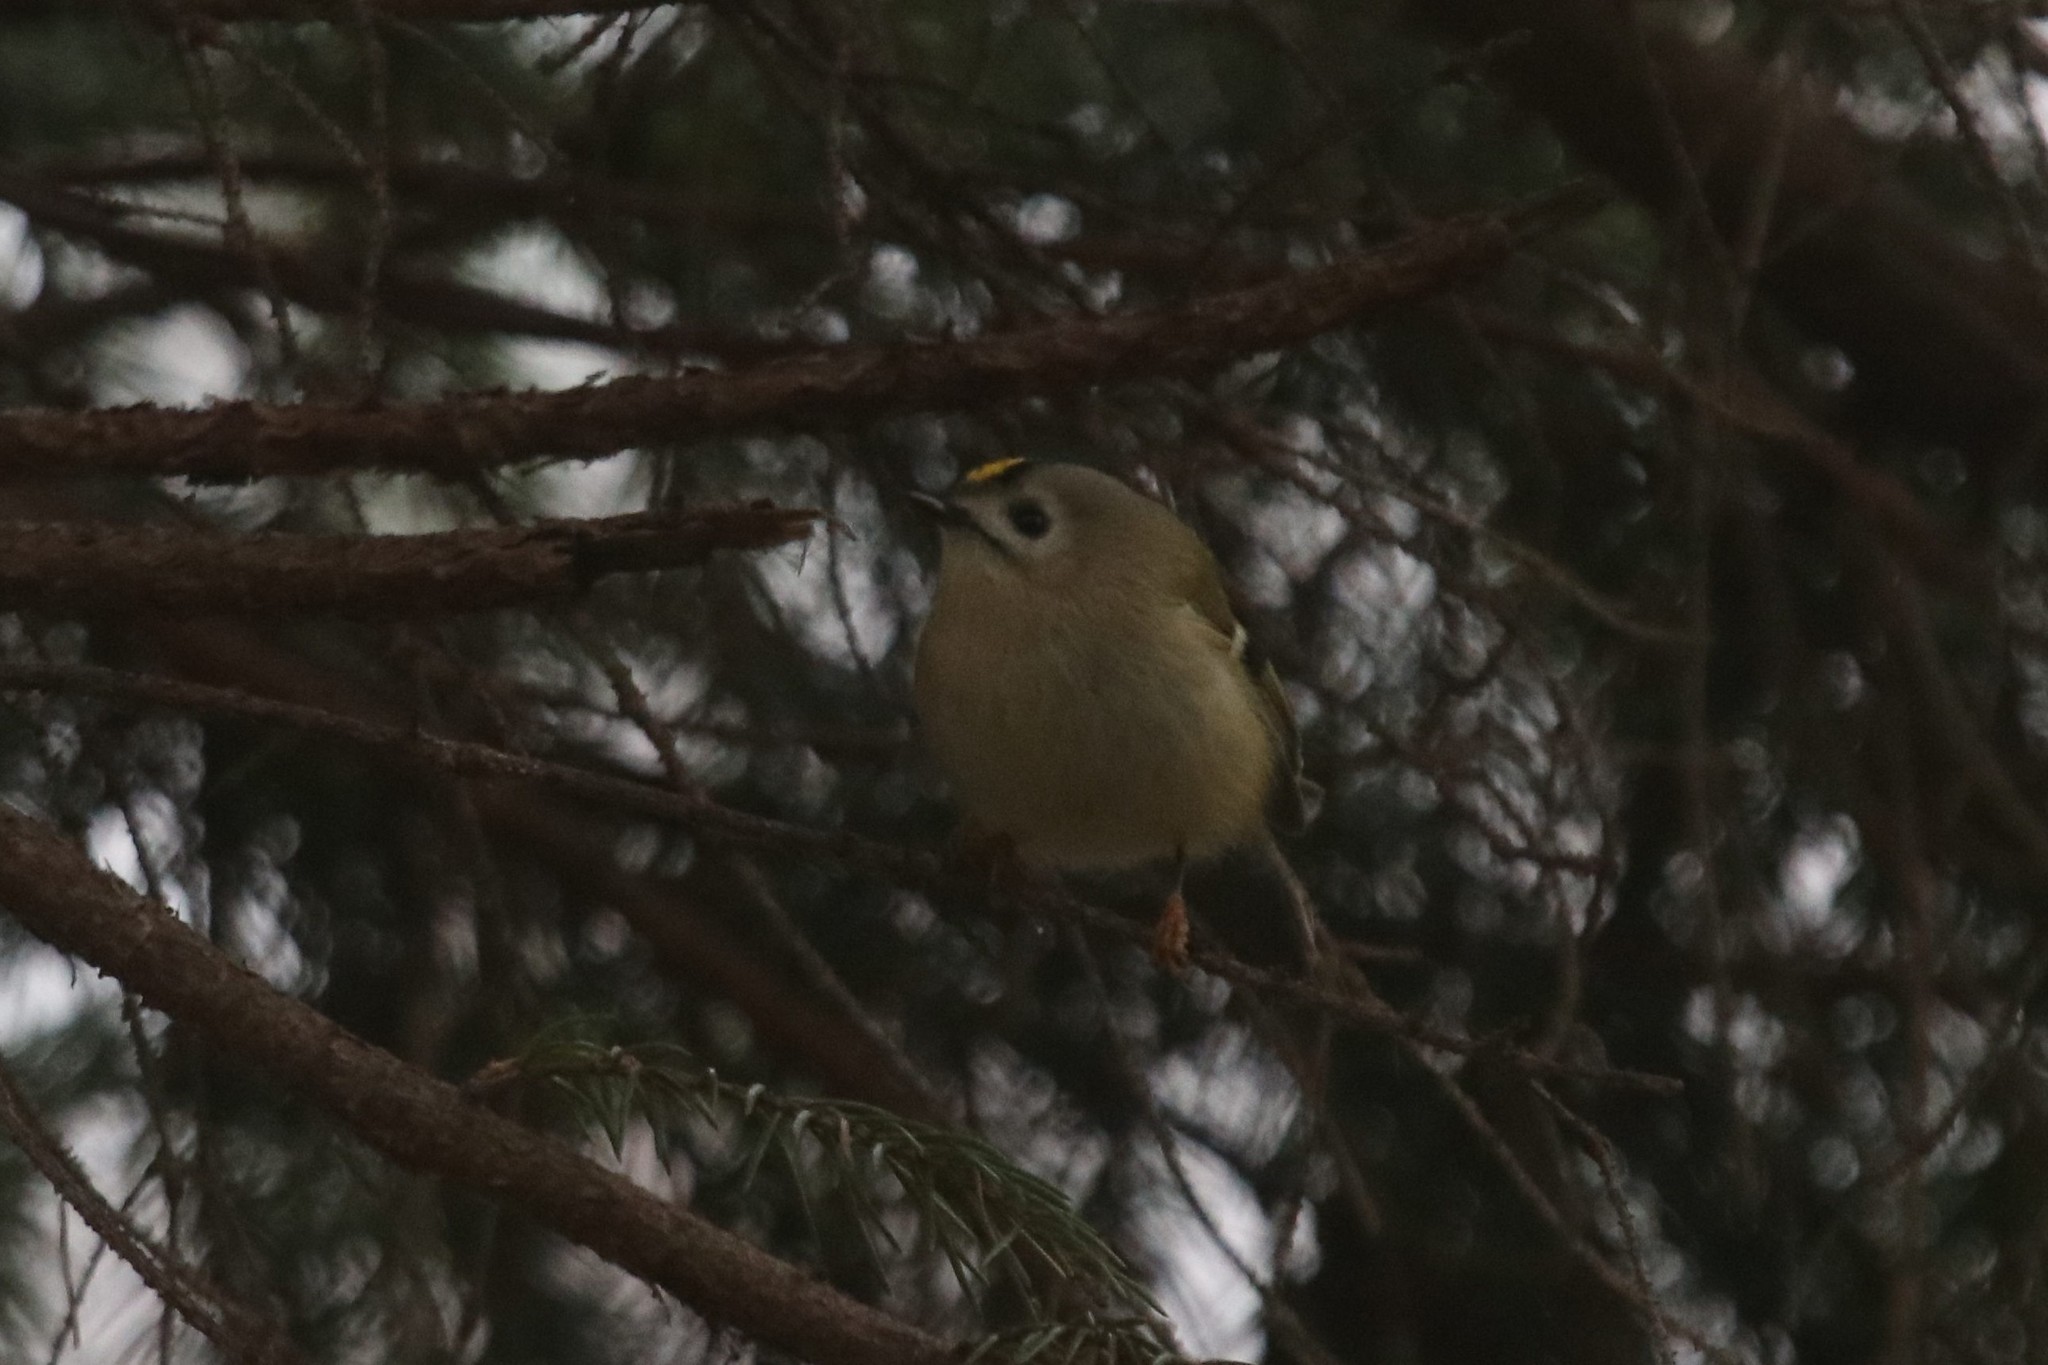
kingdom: Animalia
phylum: Chordata
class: Aves
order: Passeriformes
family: Regulidae
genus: Regulus
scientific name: Regulus regulus
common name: Goldcrest
